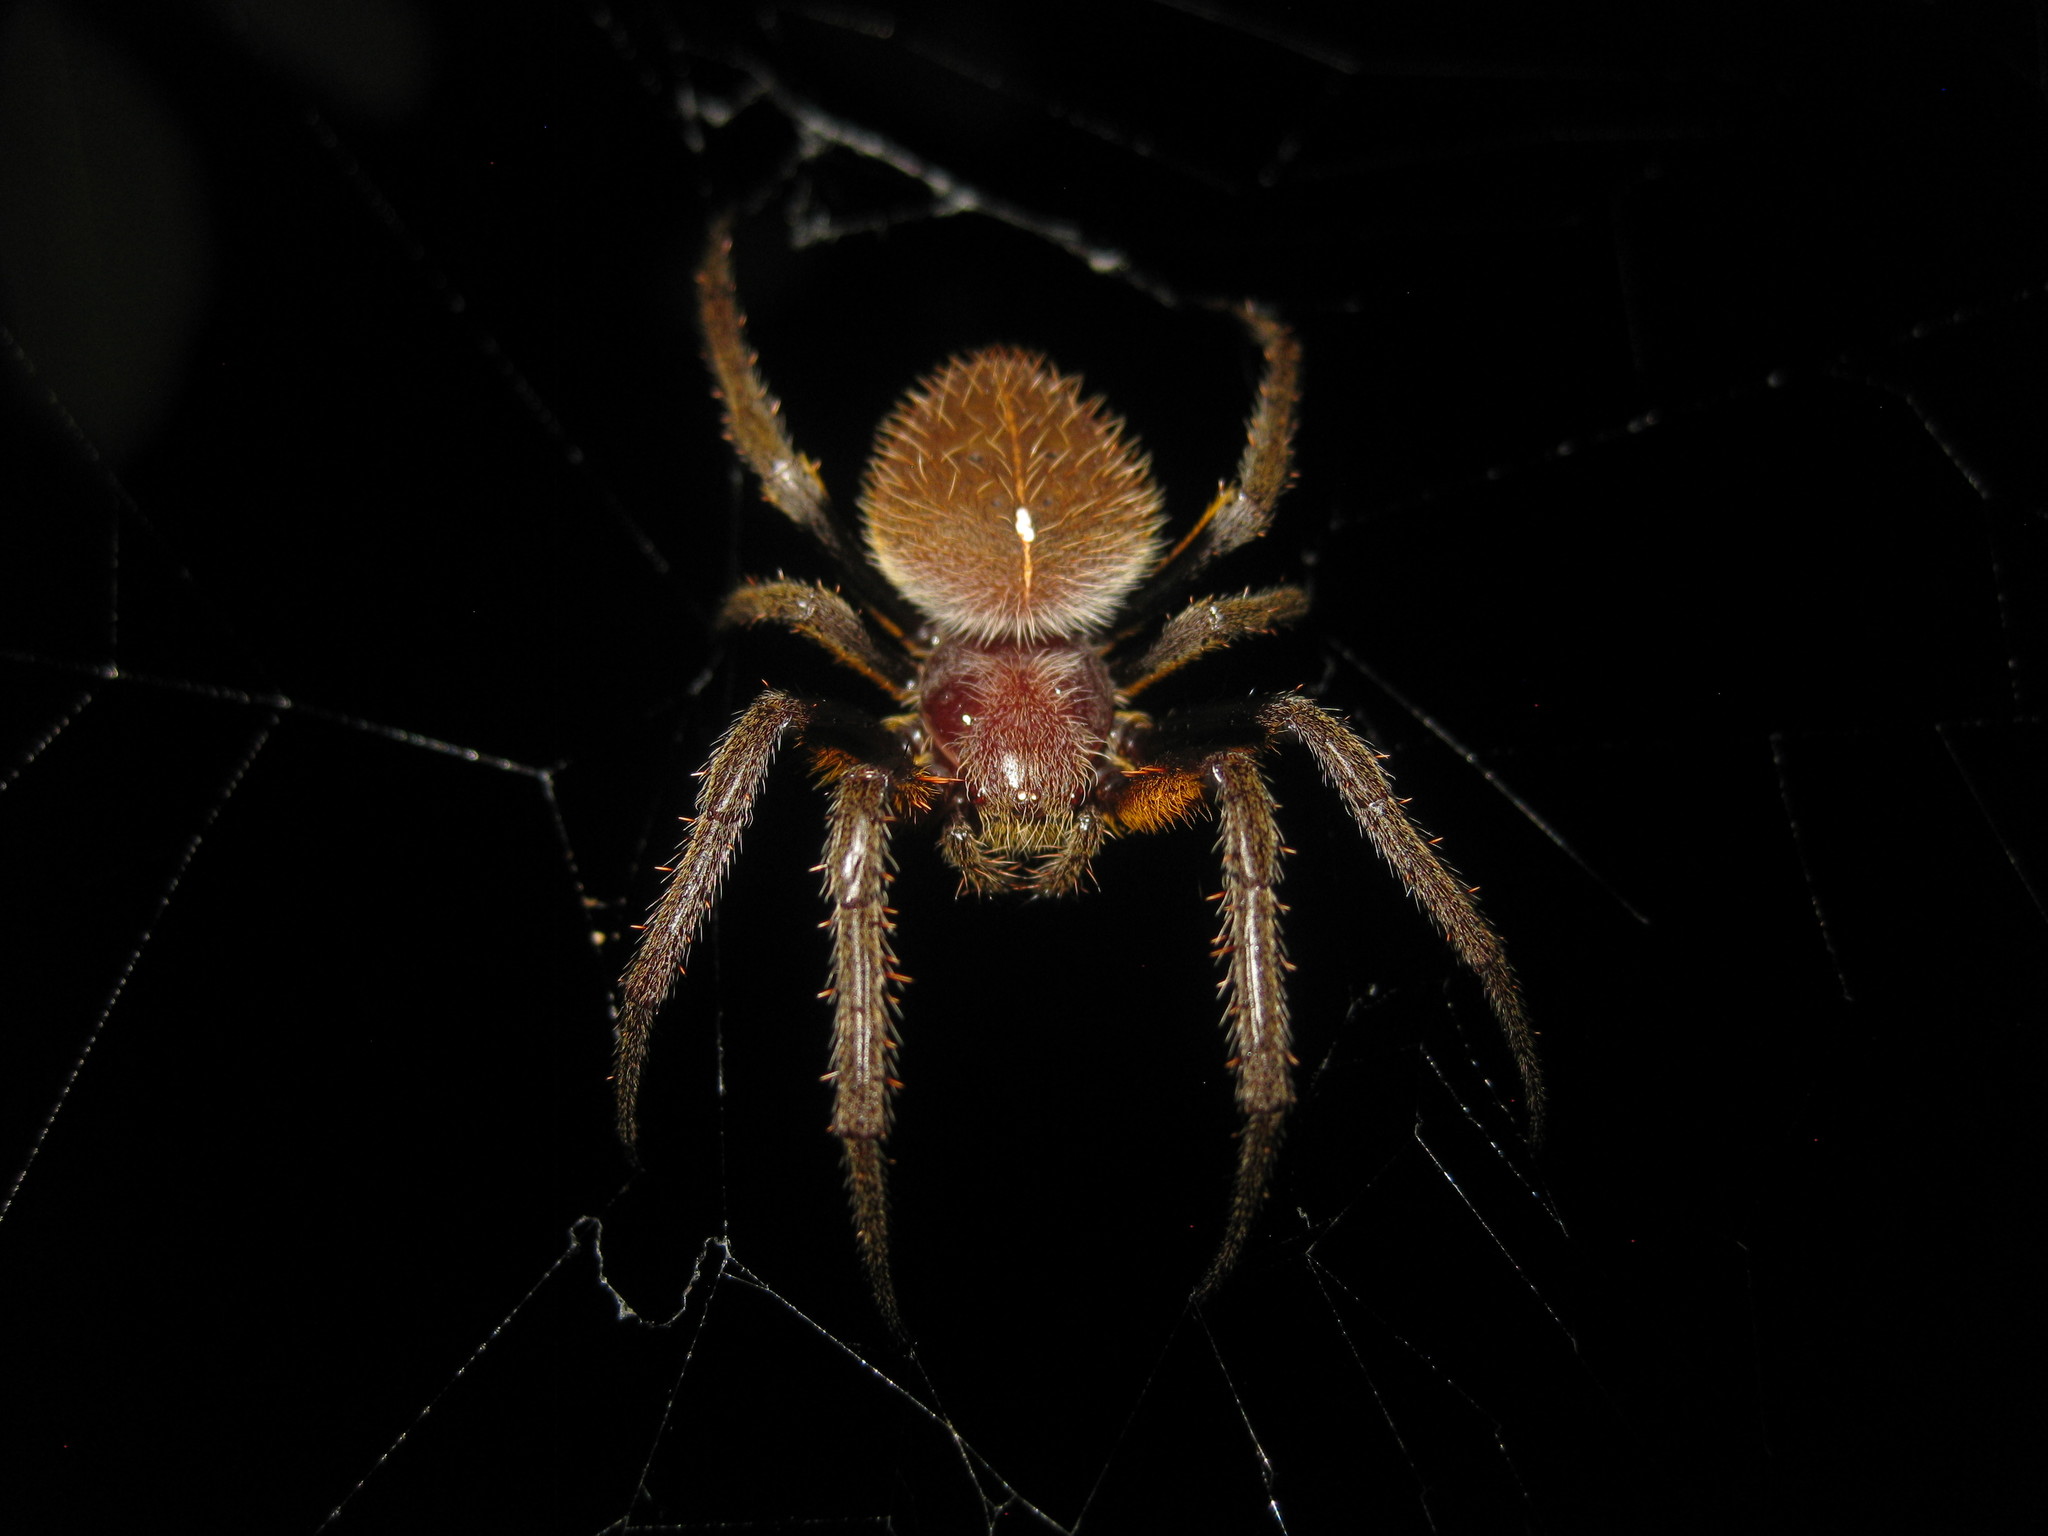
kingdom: Animalia
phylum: Arthropoda
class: Arachnida
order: Araneae
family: Araneidae
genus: Eriophora
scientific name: Eriophora fuliginea
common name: Orb weavers
